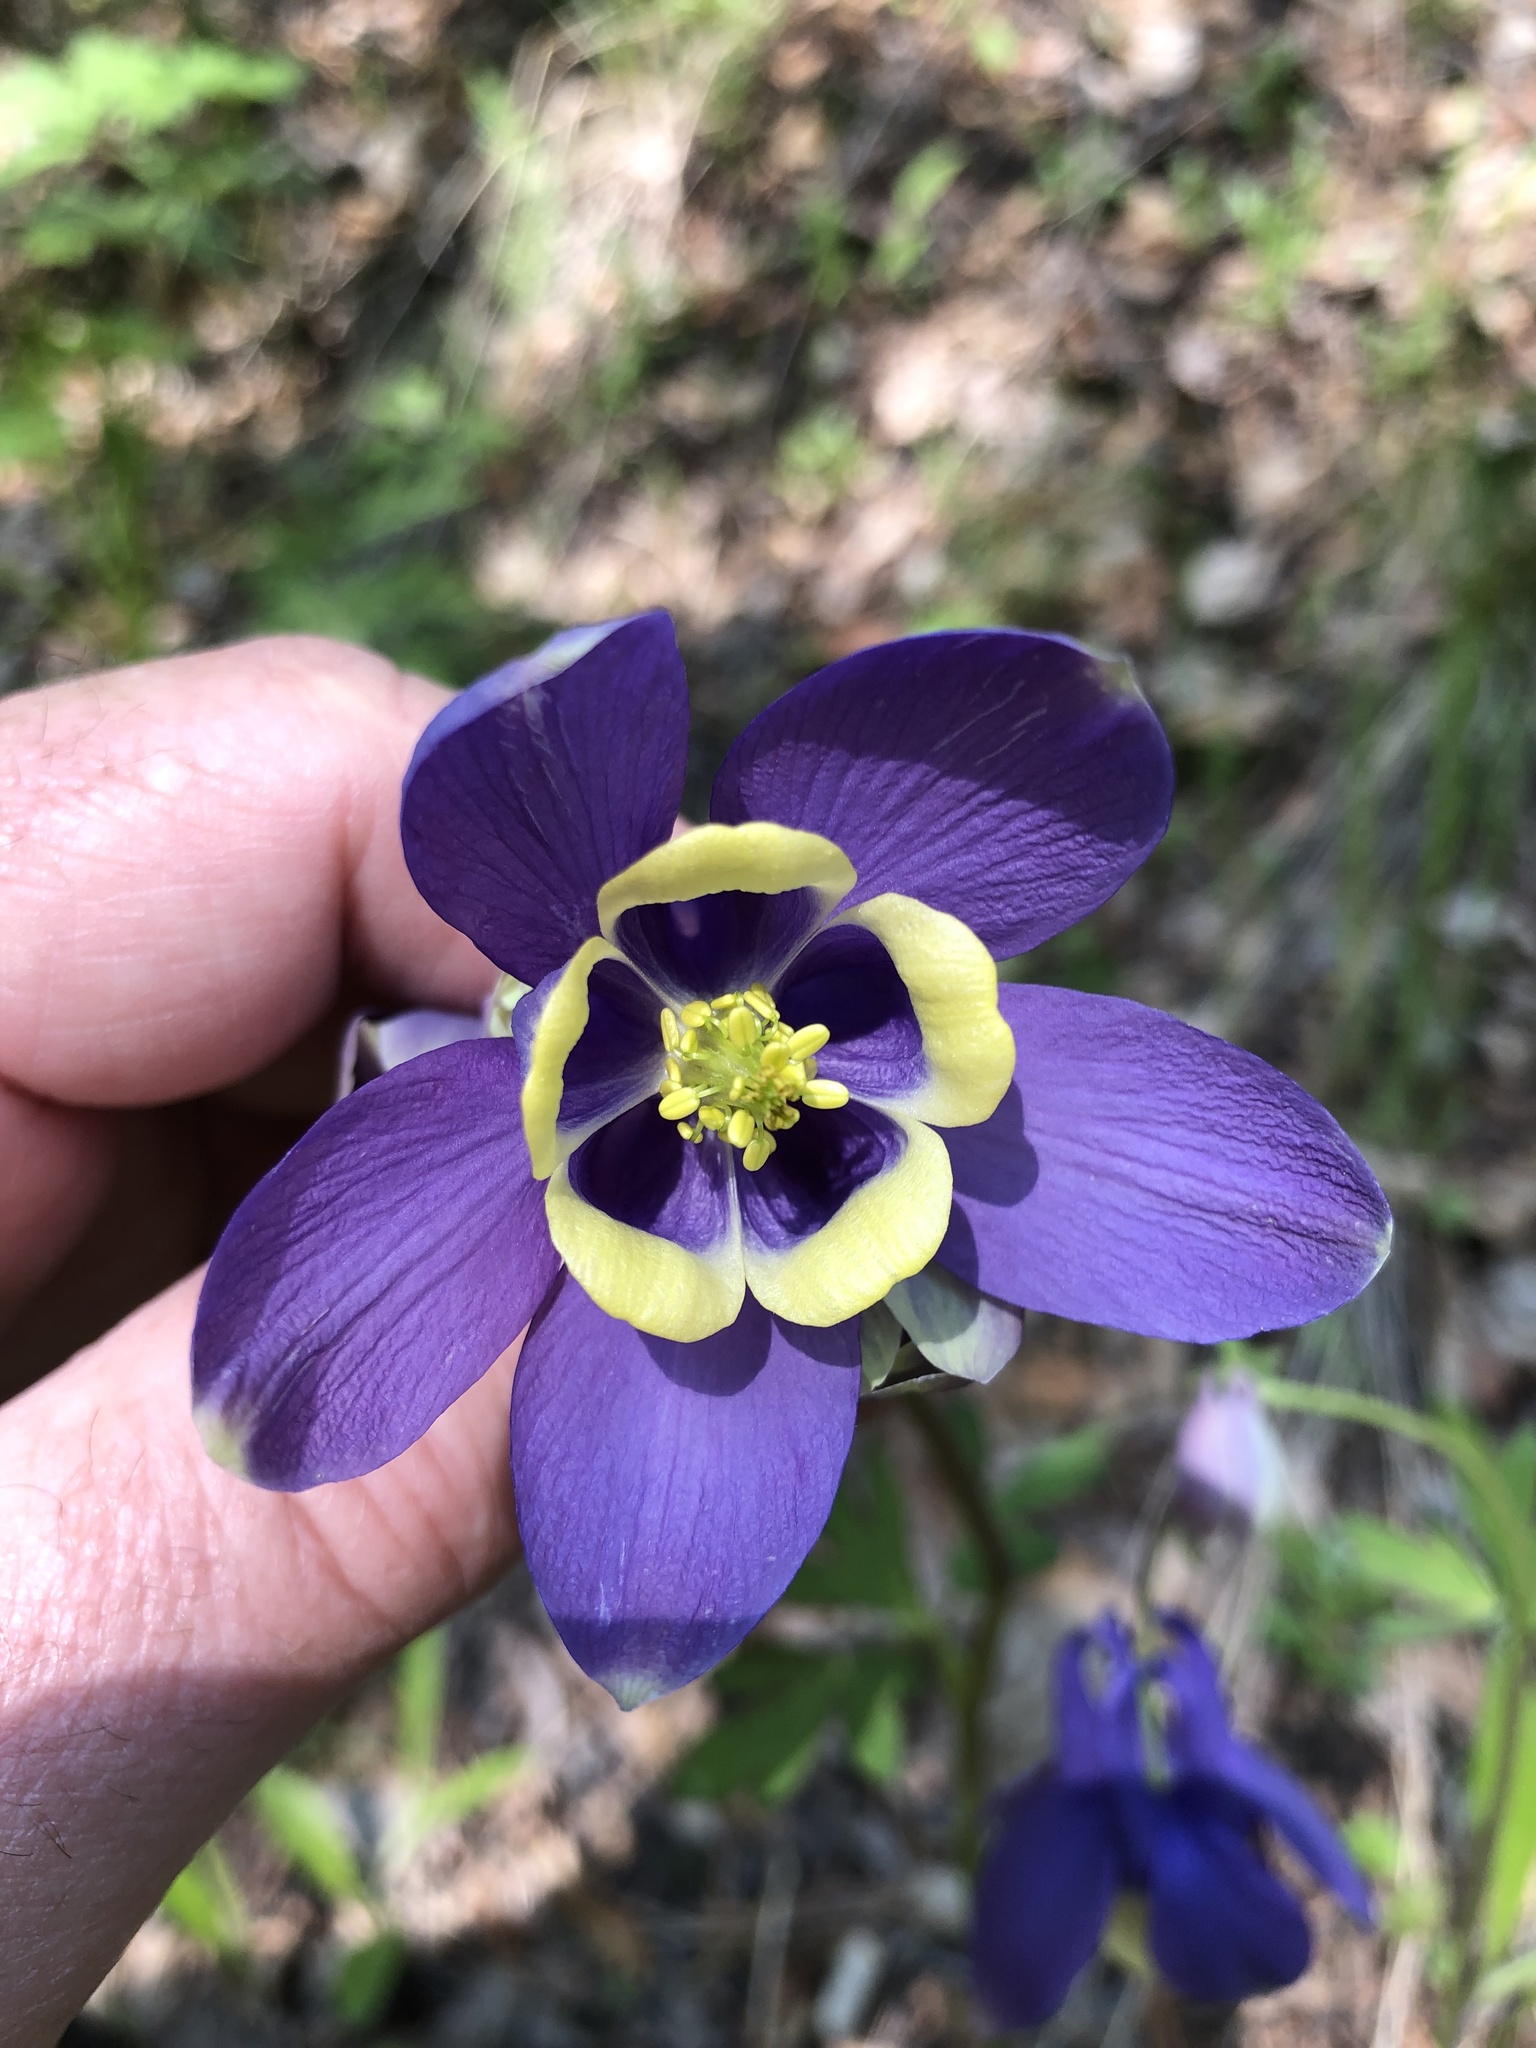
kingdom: Plantae
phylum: Tracheophyta
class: Magnoliopsida
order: Ranunculales
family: Ranunculaceae
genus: Aquilegia
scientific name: Aquilegia sibirica
